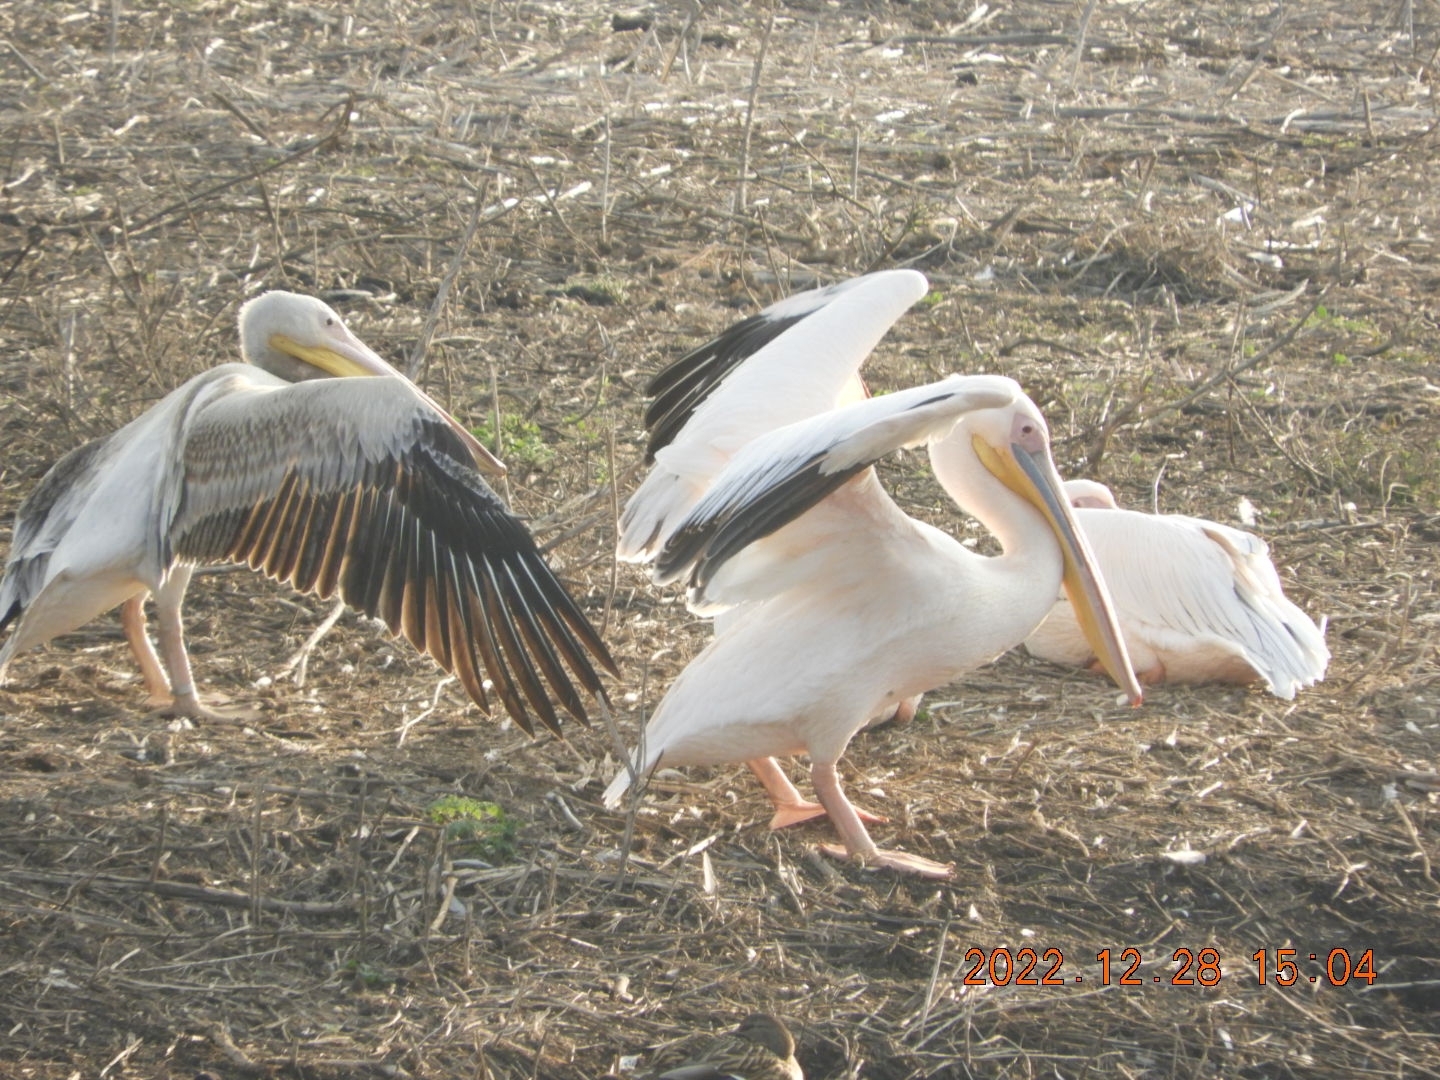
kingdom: Animalia
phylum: Chordata
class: Aves
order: Pelecaniformes
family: Pelecanidae
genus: Pelecanus
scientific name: Pelecanus onocrotalus
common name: Great white pelican
